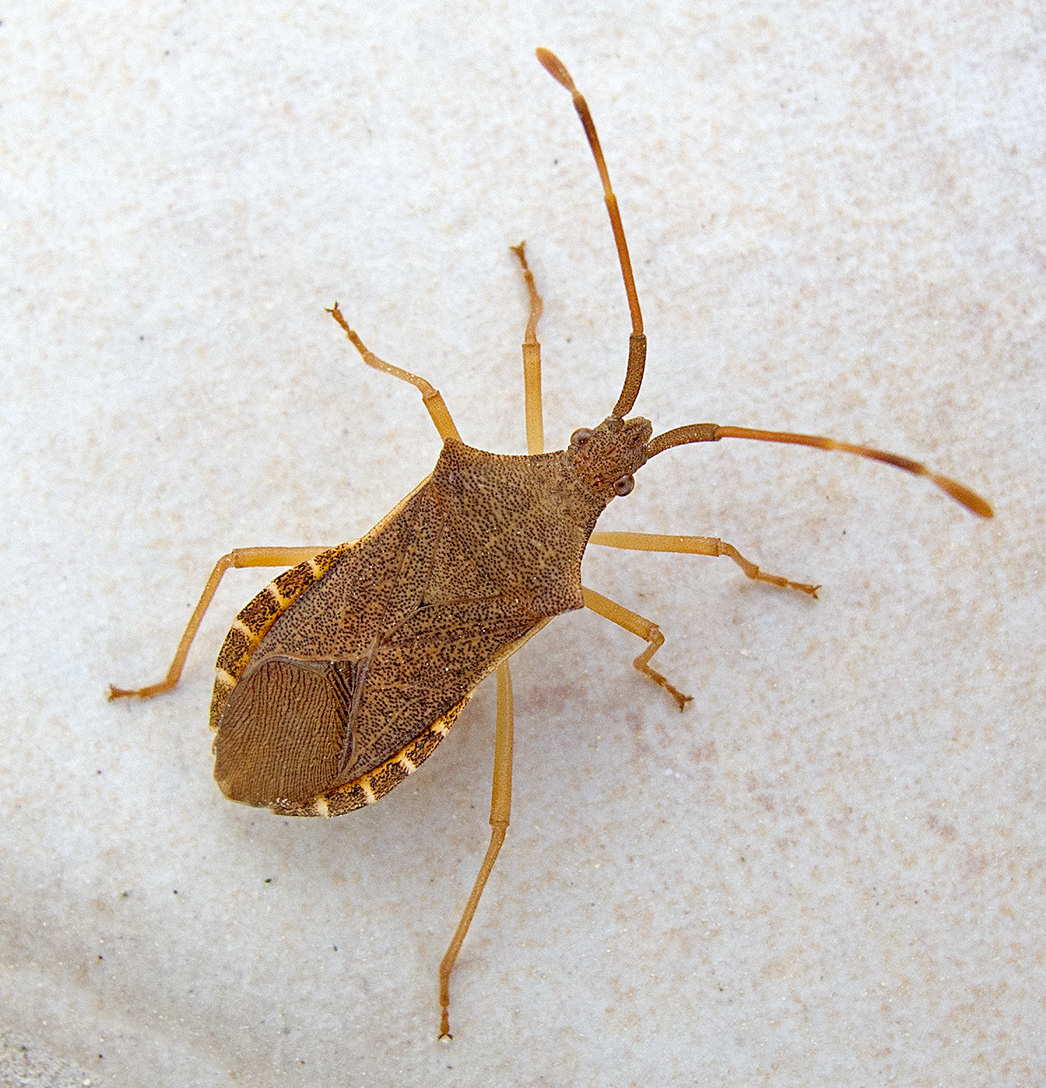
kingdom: Animalia
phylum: Arthropoda
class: Insecta
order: Hemiptera
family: Coreidae
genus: Gonocerus
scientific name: Gonocerus acuteangulatus
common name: Box bug
